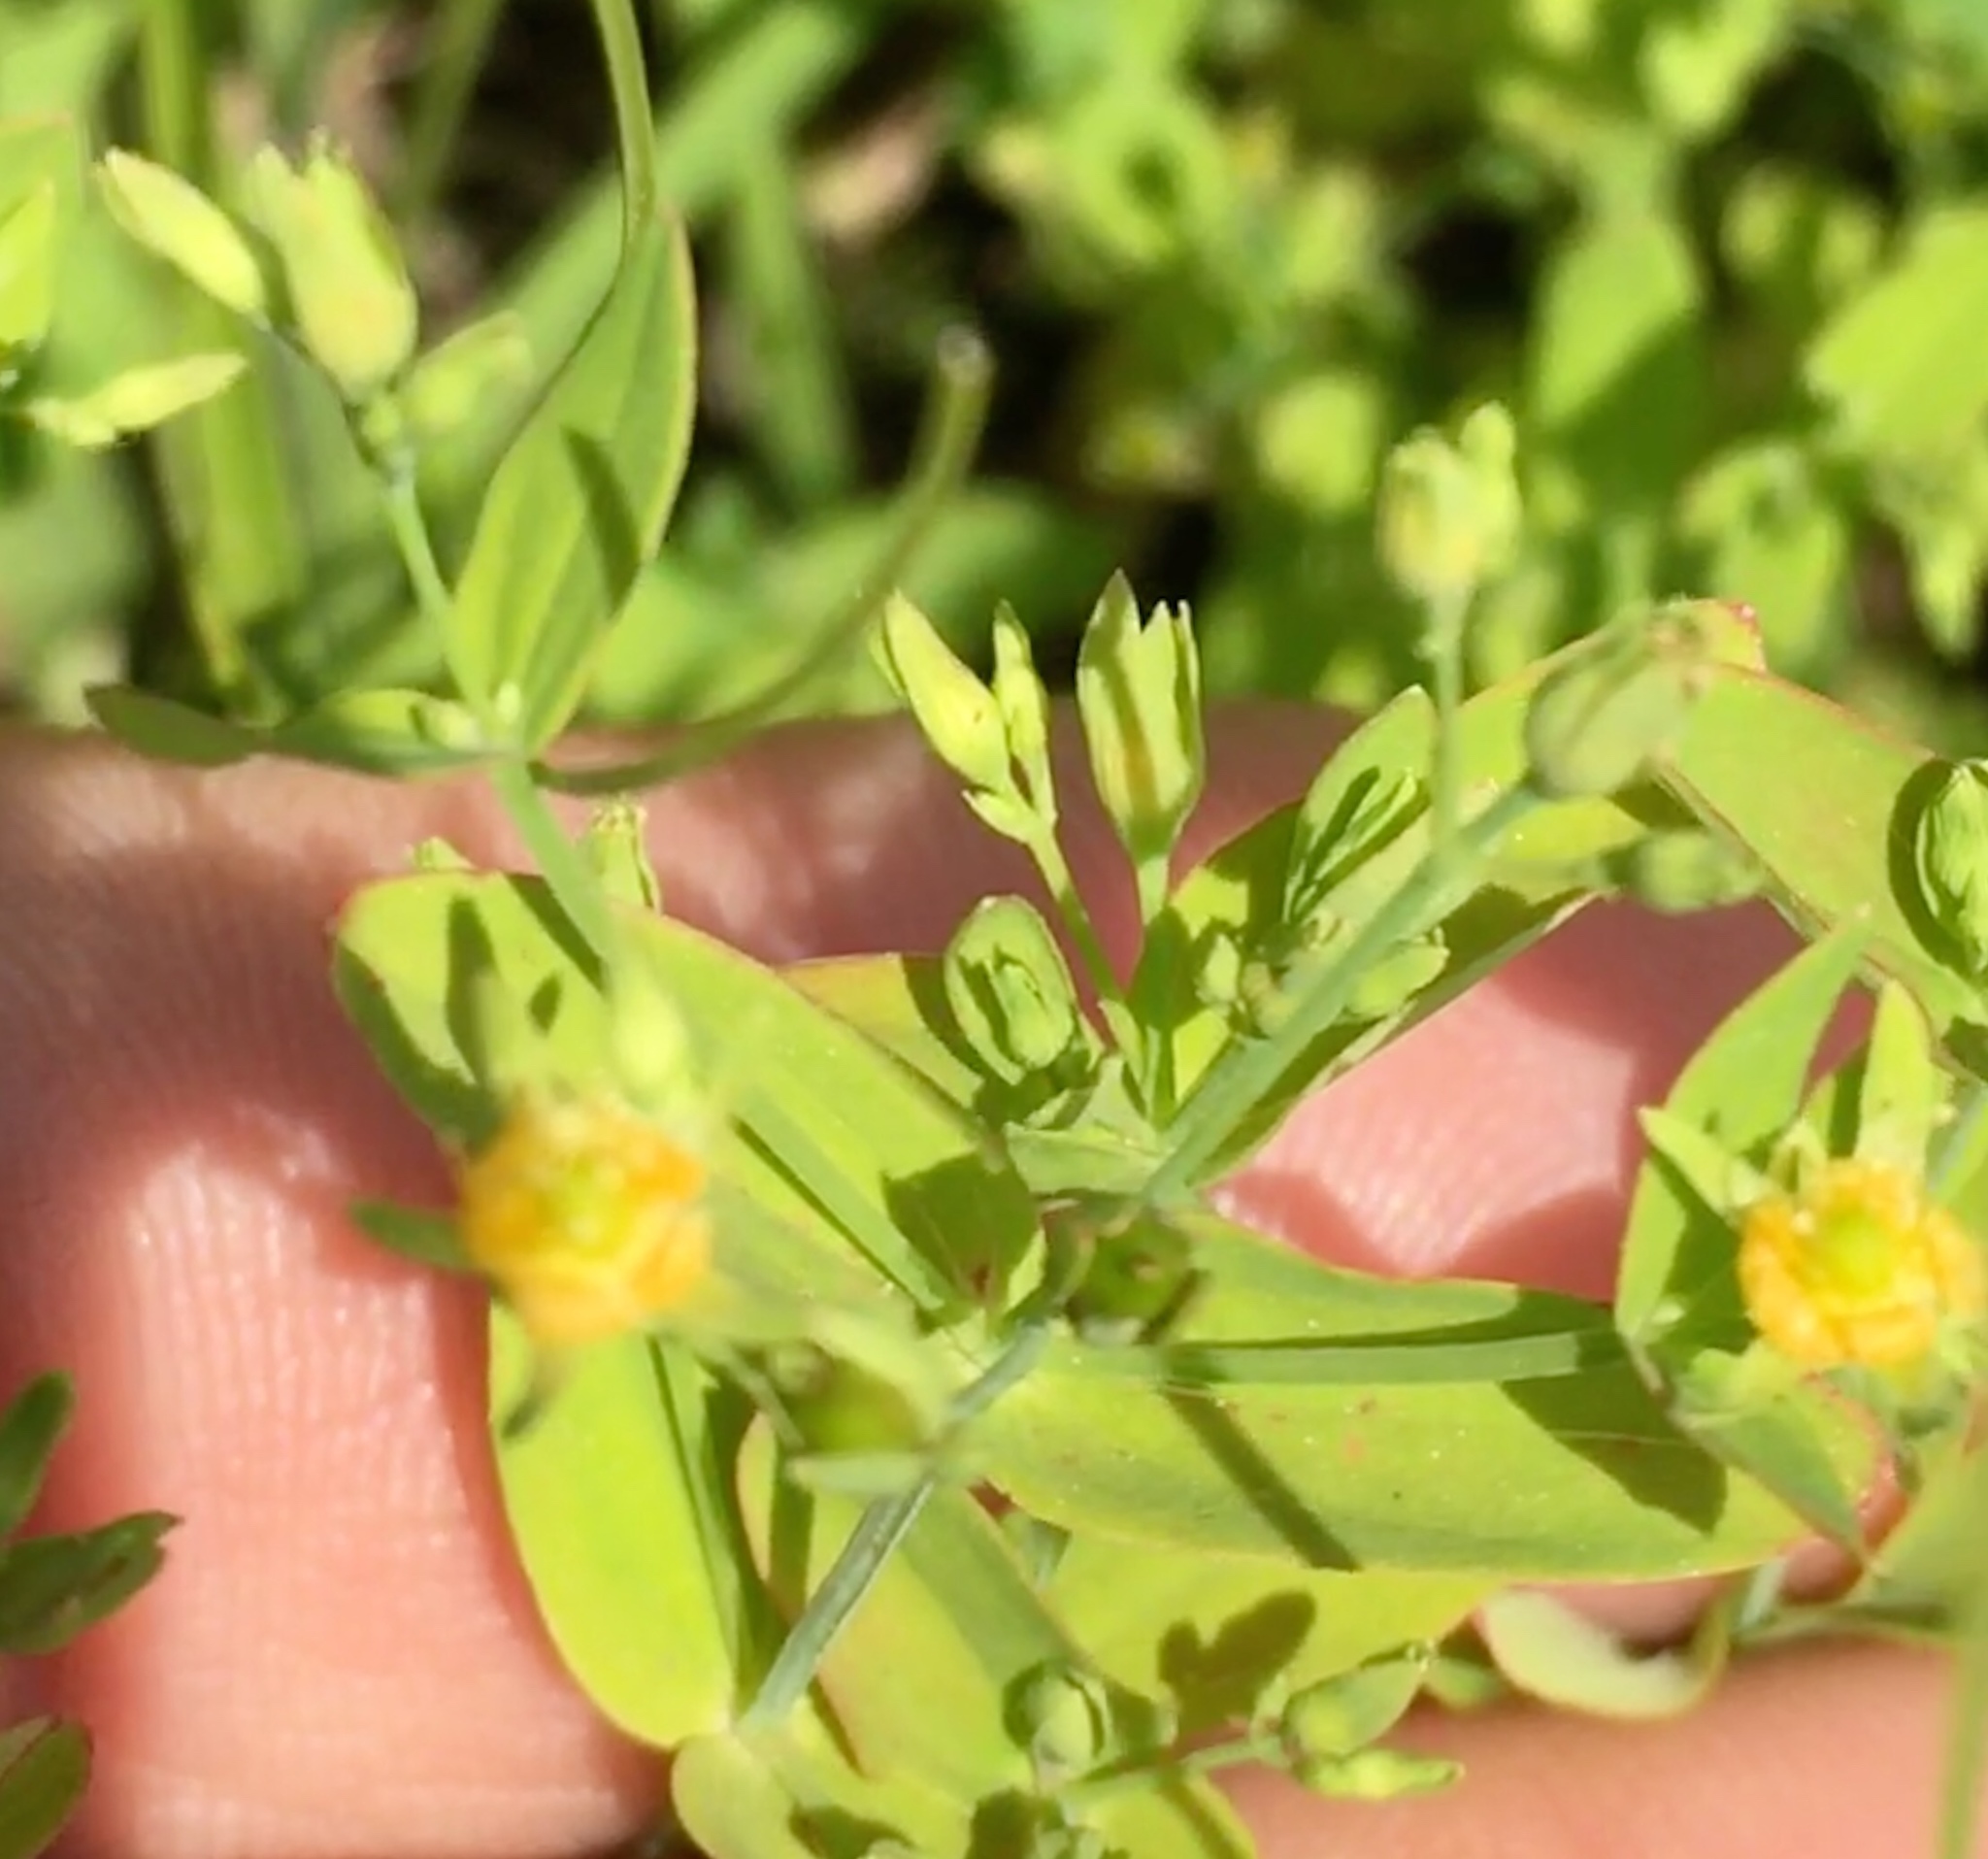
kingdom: Plantae
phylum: Tracheophyta
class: Magnoliopsida
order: Malpighiales
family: Hypericaceae
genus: Hypericum
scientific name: Hypericum mutilum
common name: Dwarf st. john's-wort
